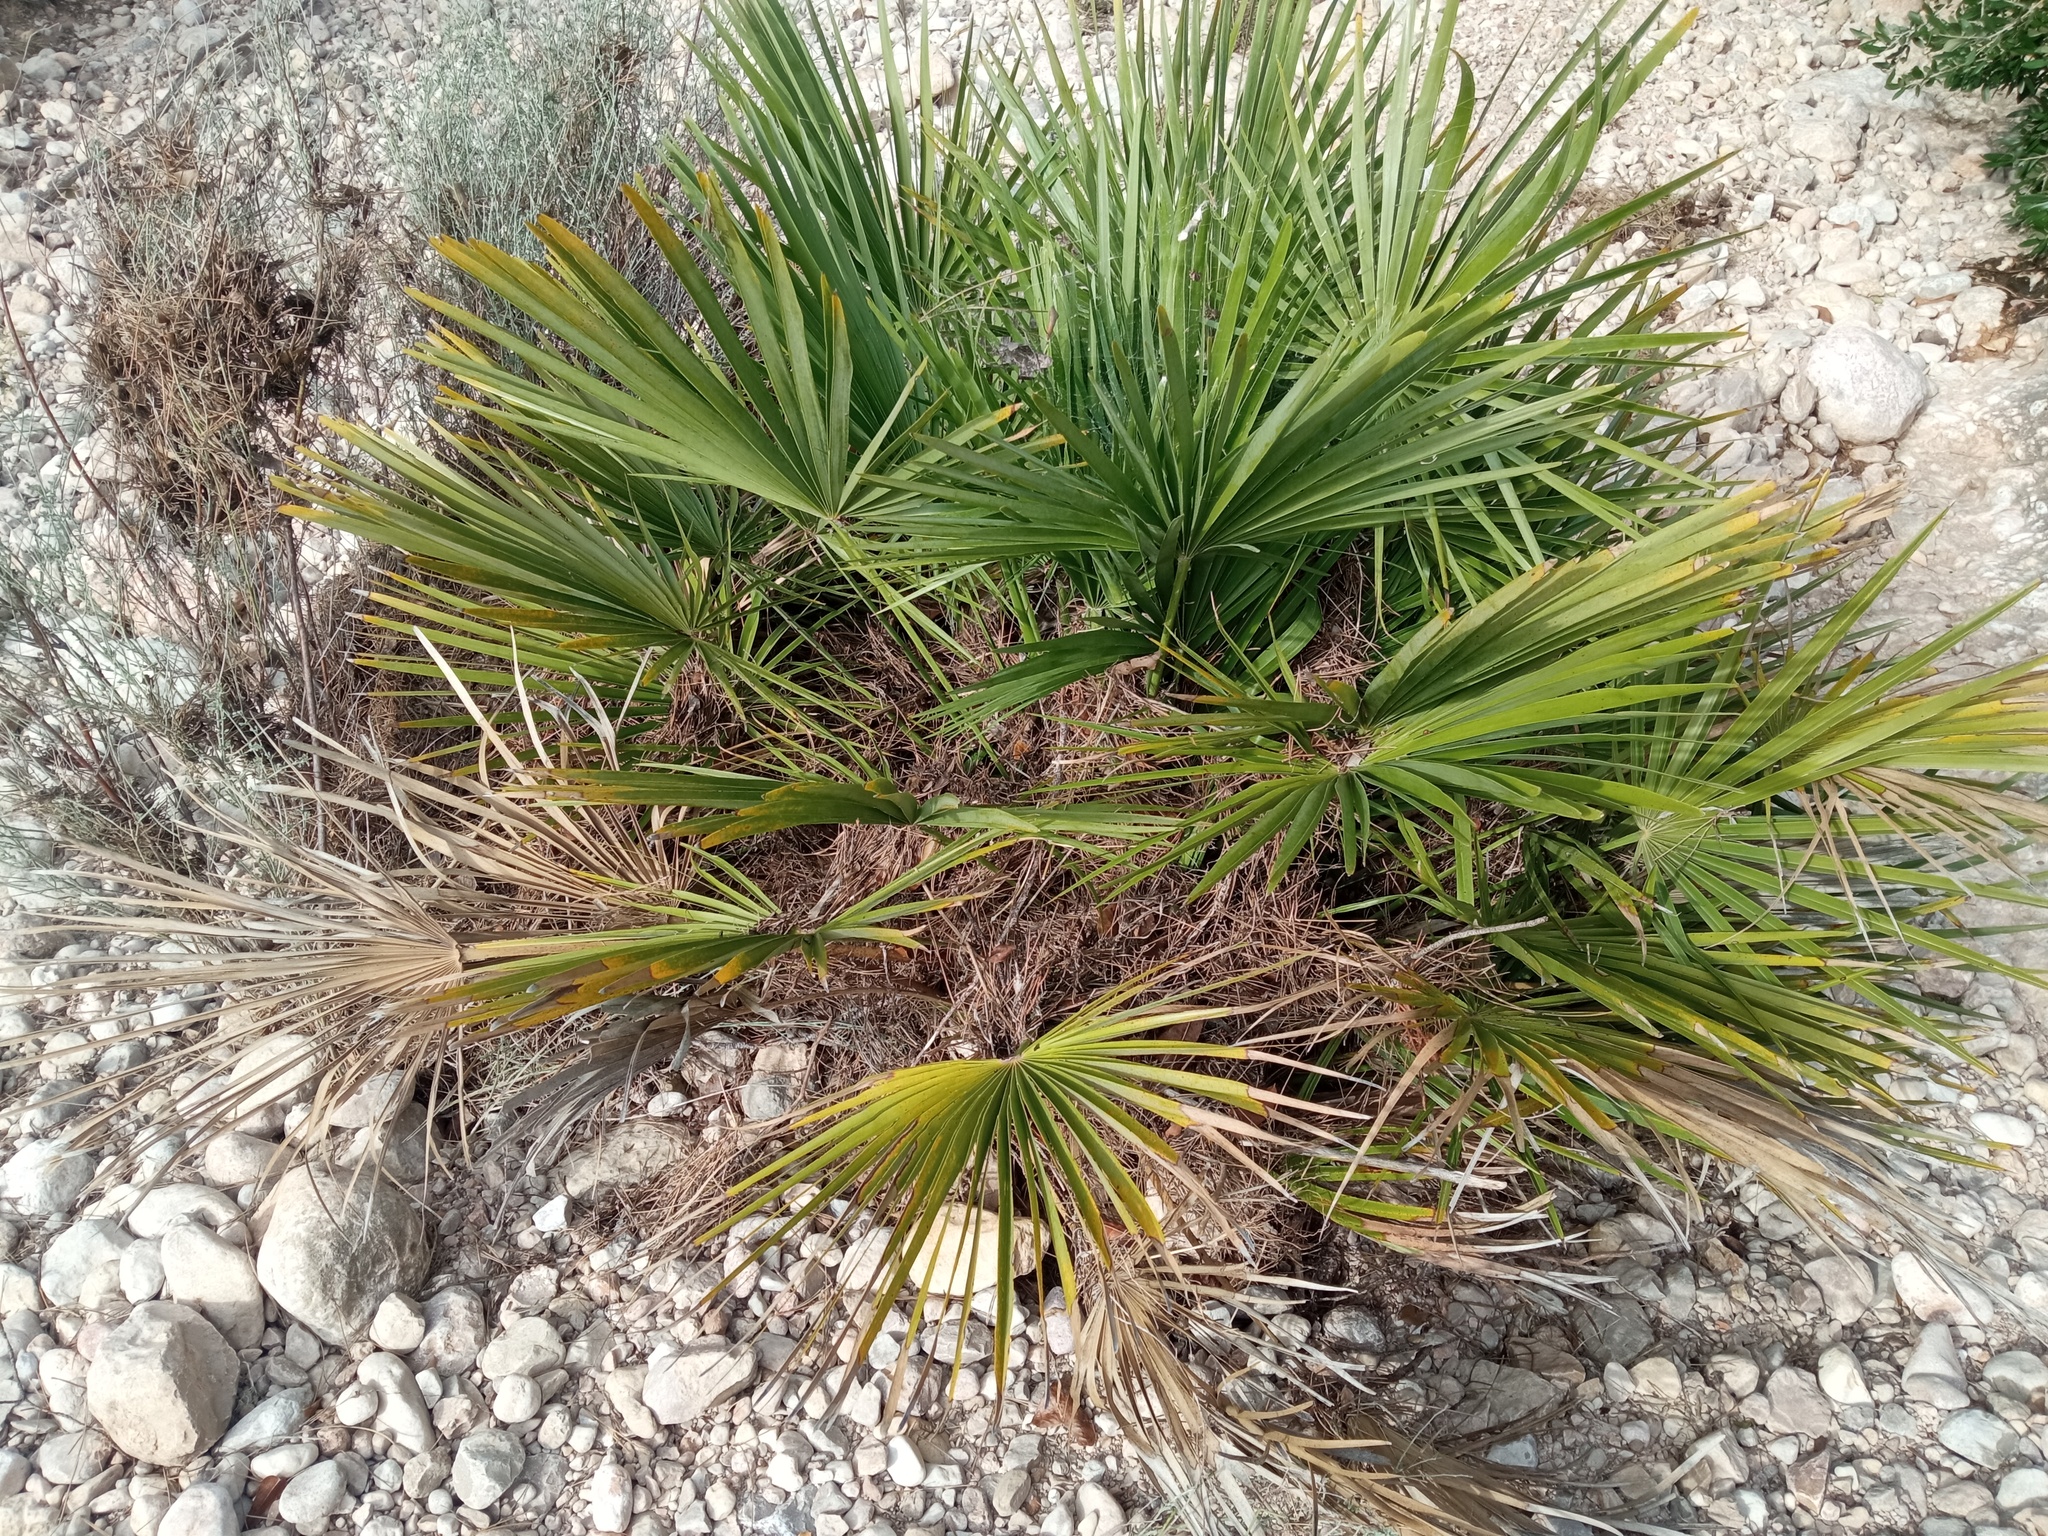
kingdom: Plantae
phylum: Tracheophyta
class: Liliopsida
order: Arecales
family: Arecaceae
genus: Chamaerops
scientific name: Chamaerops humilis
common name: Dwarf fan palm
